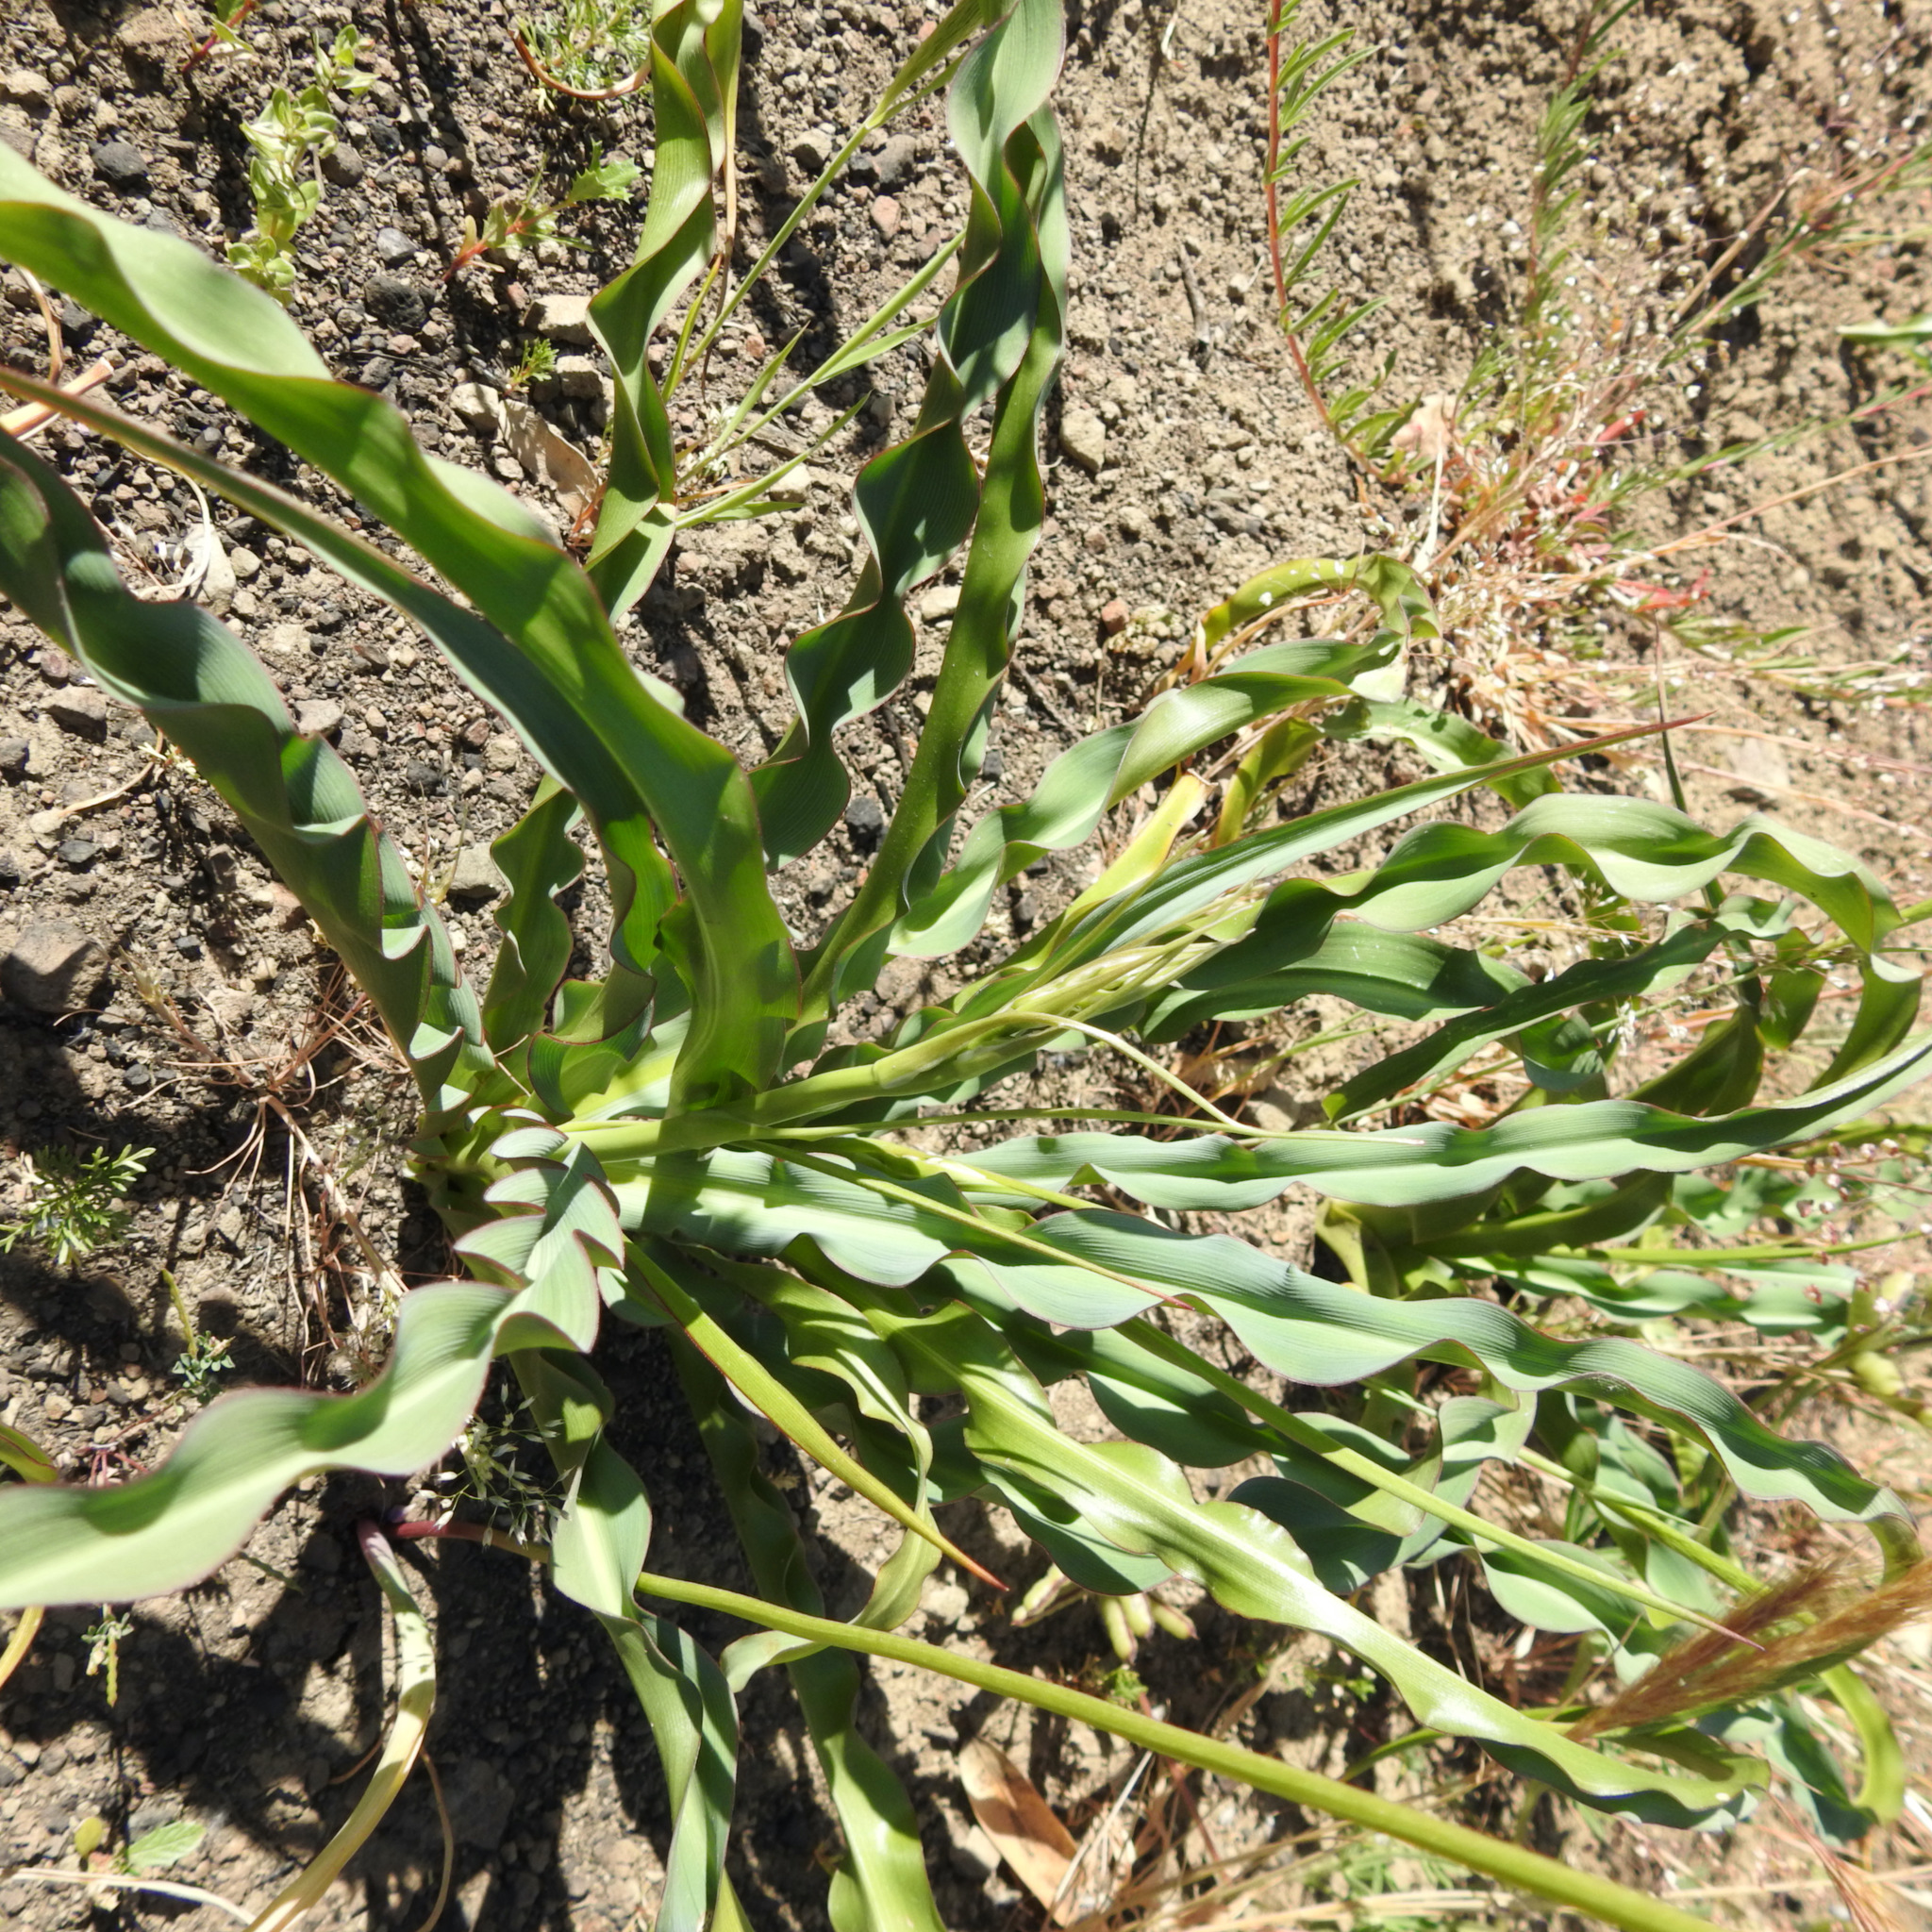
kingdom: Plantae
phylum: Tracheophyta
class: Liliopsida
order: Asparagales
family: Asparagaceae
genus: Chlorogalum
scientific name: Chlorogalum pomeridianum
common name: Amole
